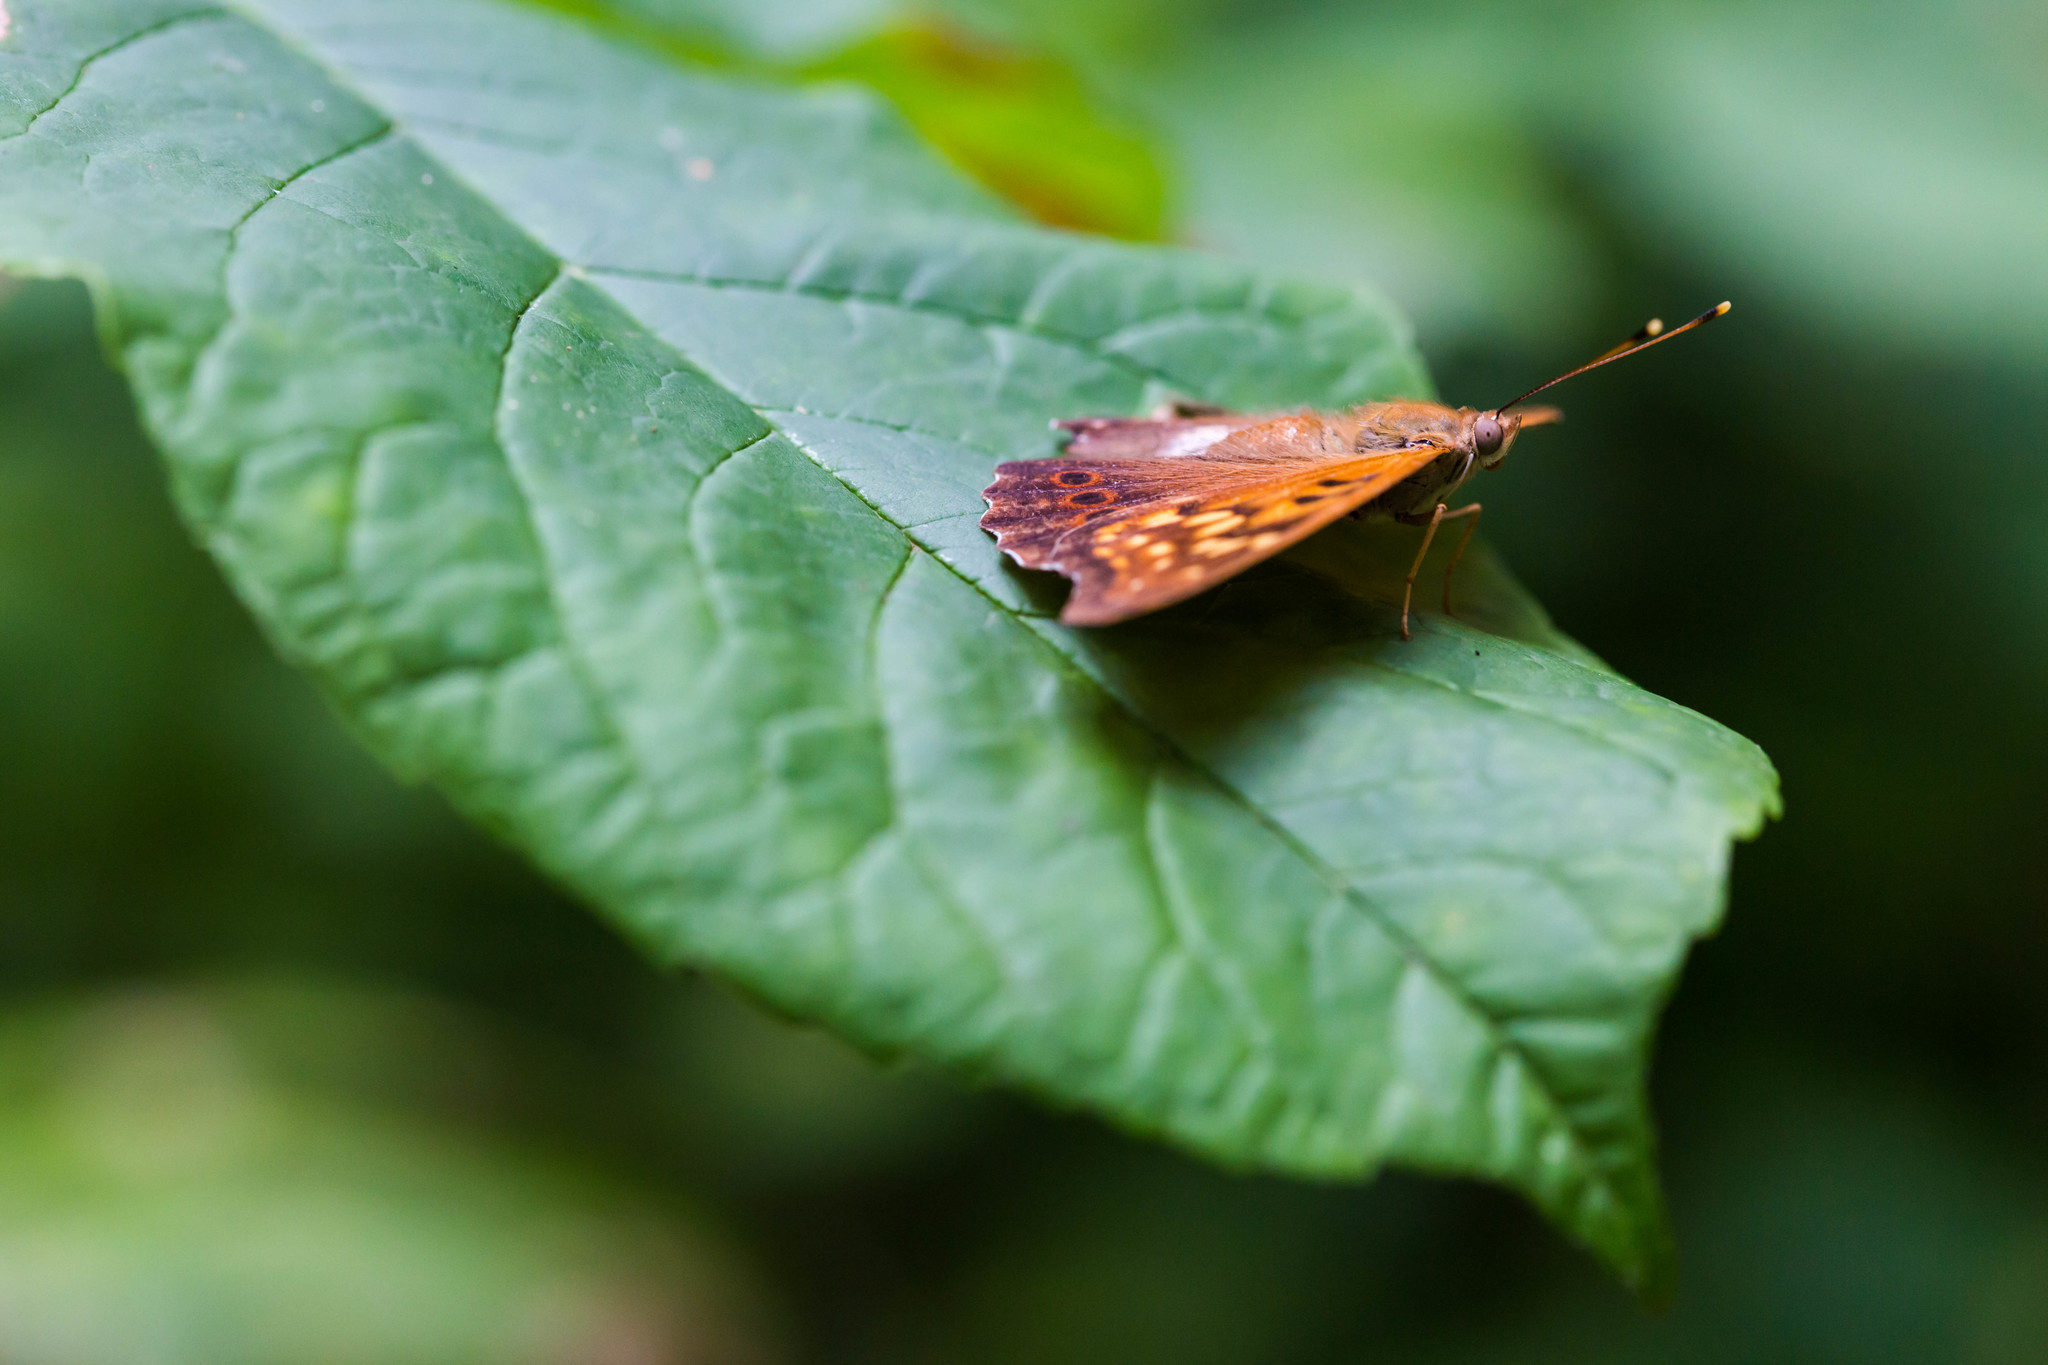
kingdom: Animalia
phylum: Arthropoda
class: Insecta
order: Lepidoptera
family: Nymphalidae
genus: Asterocampa
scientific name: Asterocampa clyton
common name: Tawny emperor
